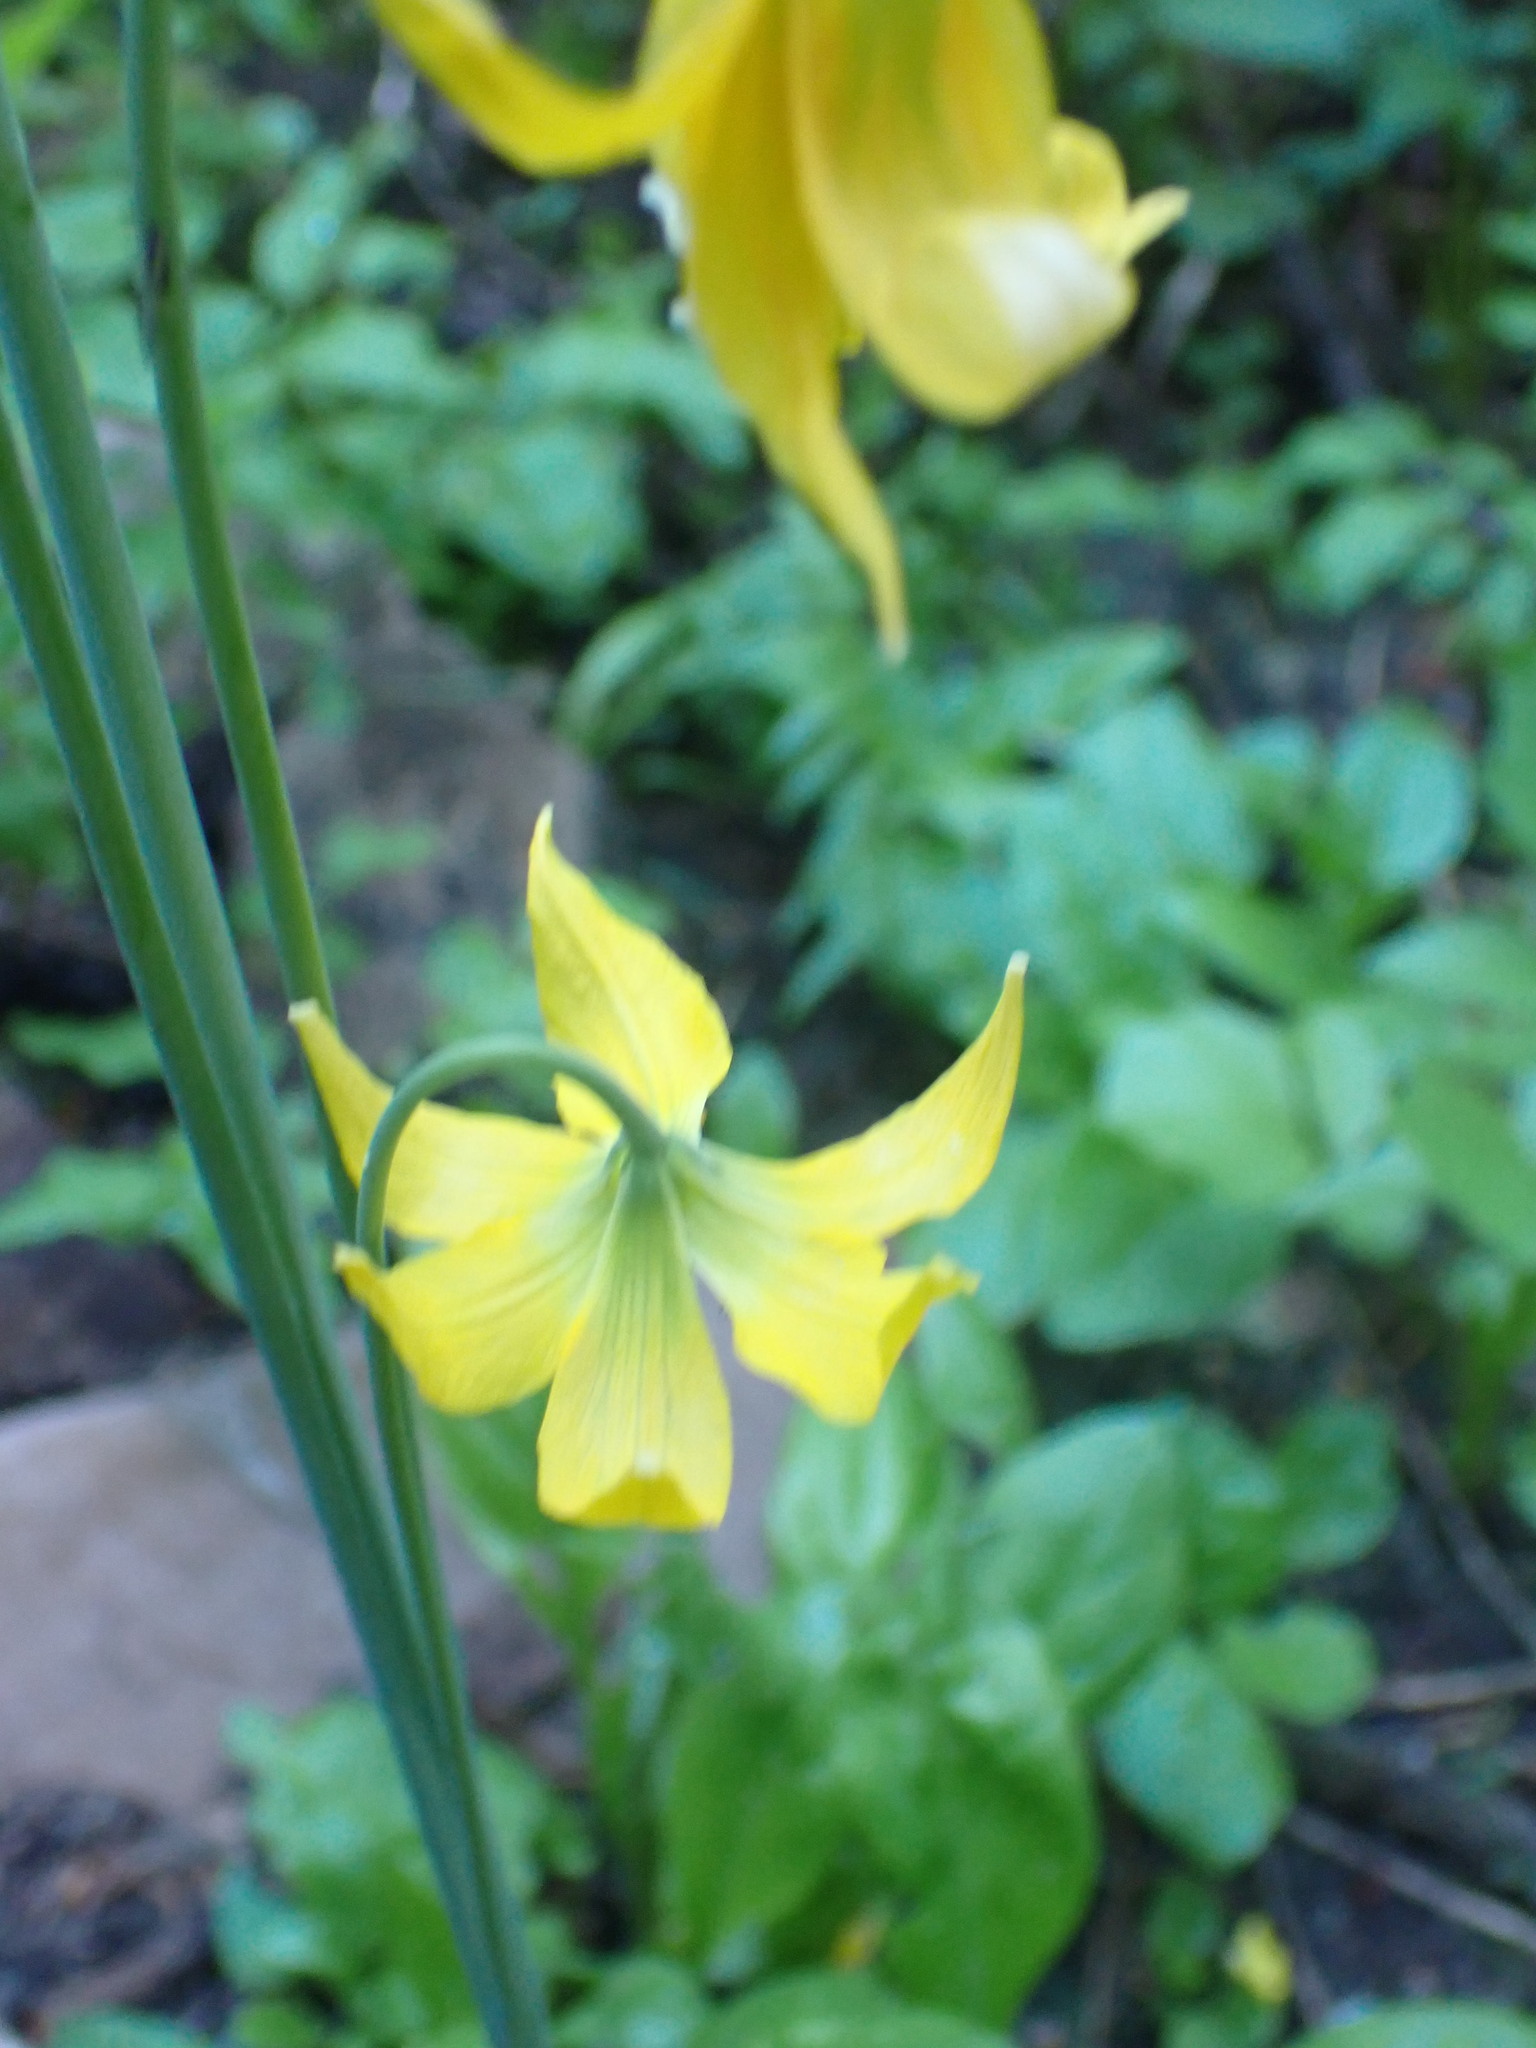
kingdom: Plantae
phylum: Tracheophyta
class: Liliopsida
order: Liliales
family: Liliaceae
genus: Erythronium
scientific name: Erythronium grandiflorum
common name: Avalanche-lily
